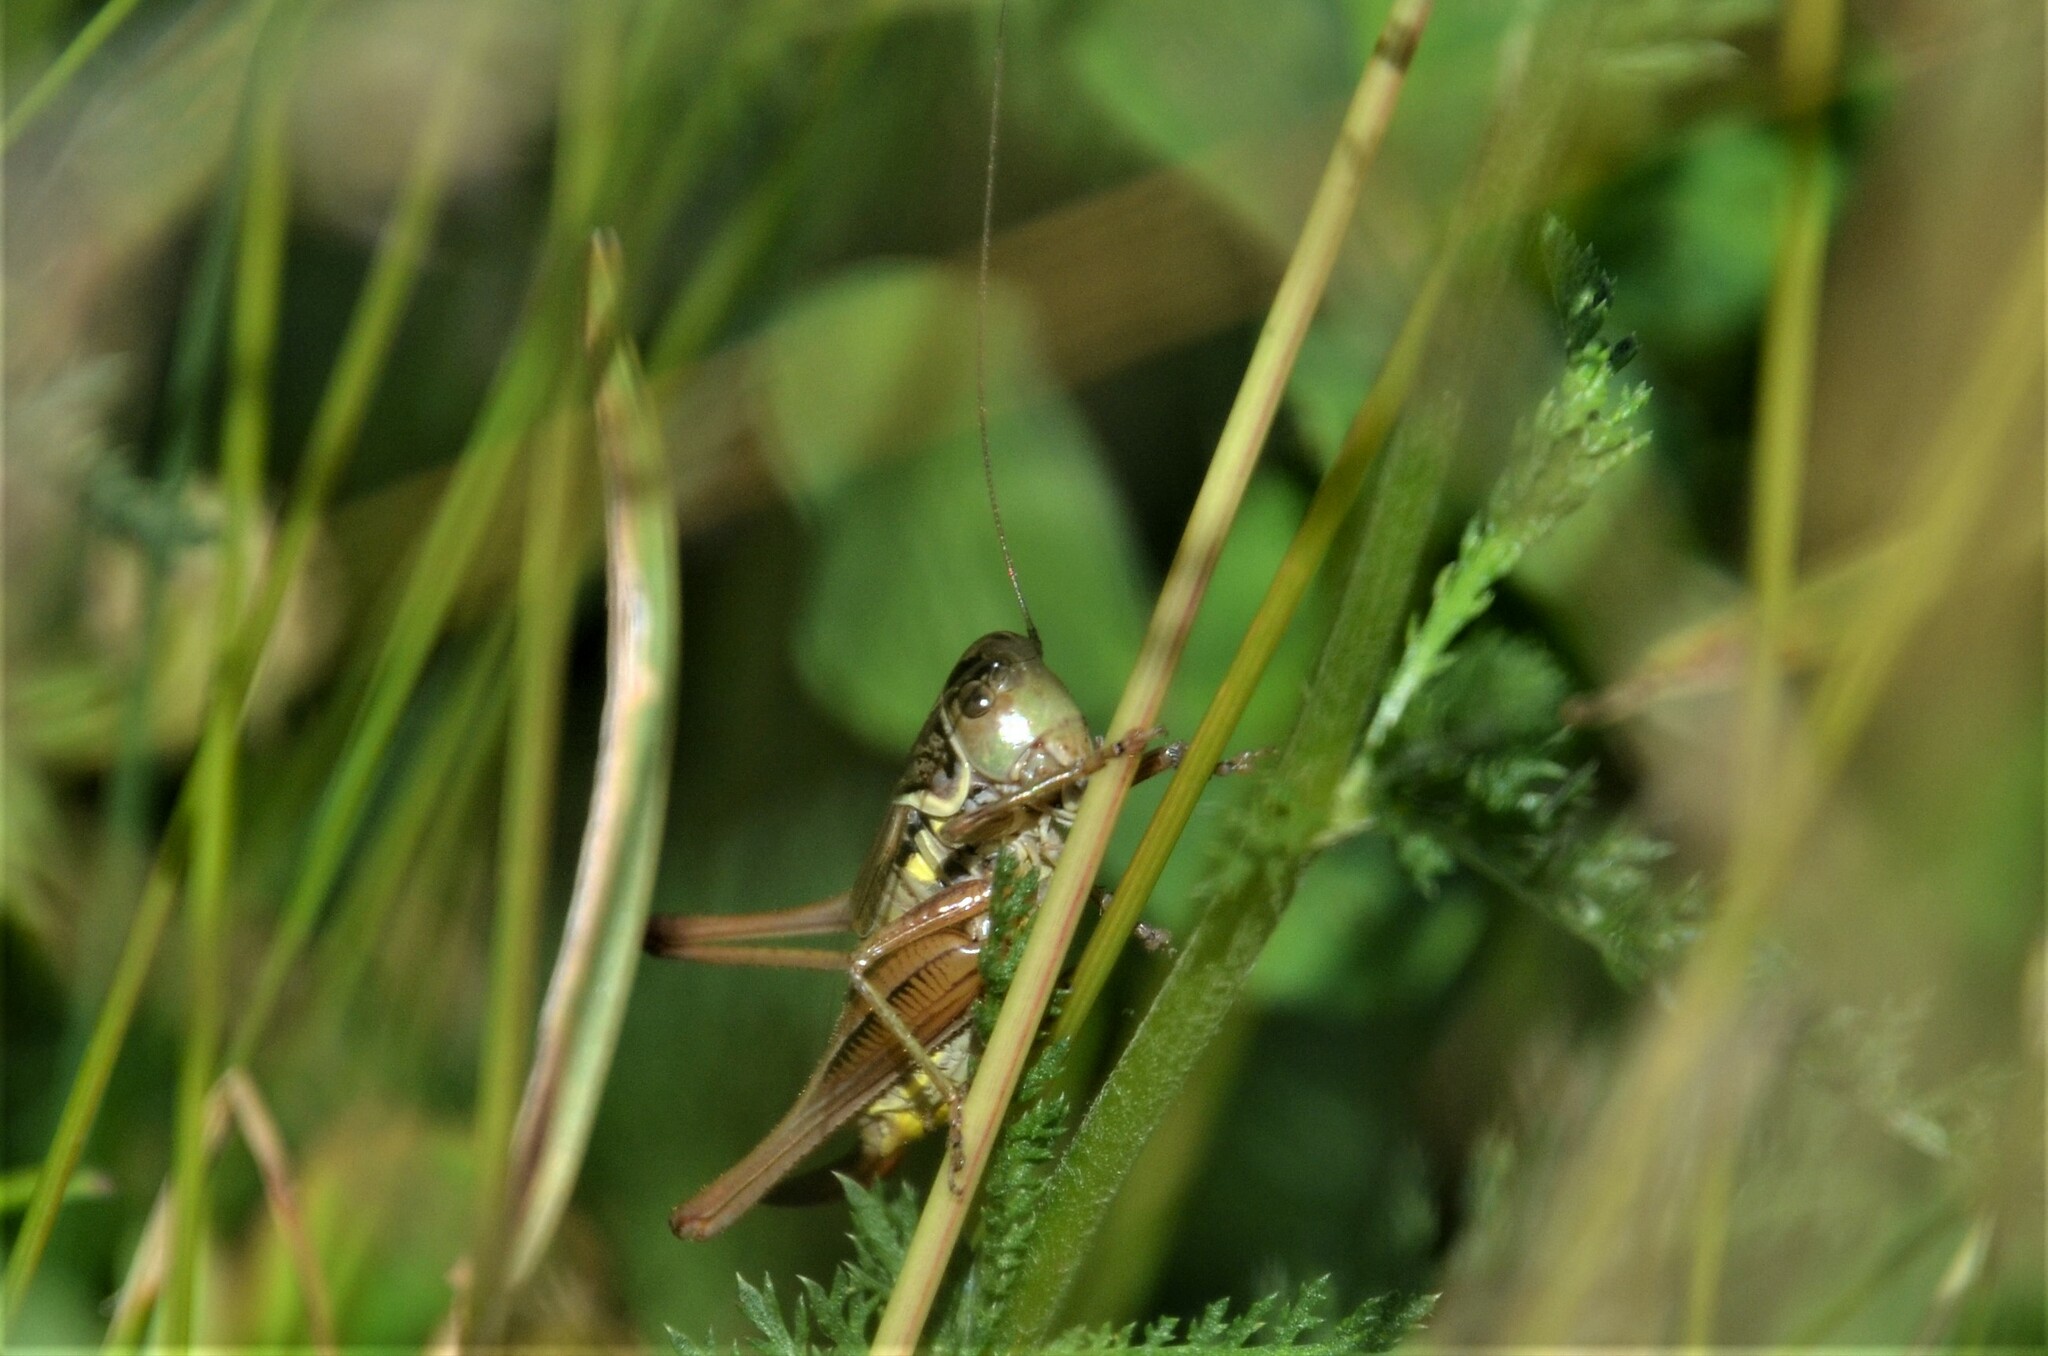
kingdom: Animalia
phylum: Arthropoda
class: Insecta
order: Orthoptera
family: Tettigoniidae
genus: Roeseliana
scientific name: Roeseliana roeselii
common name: Roesel's bush cricket
